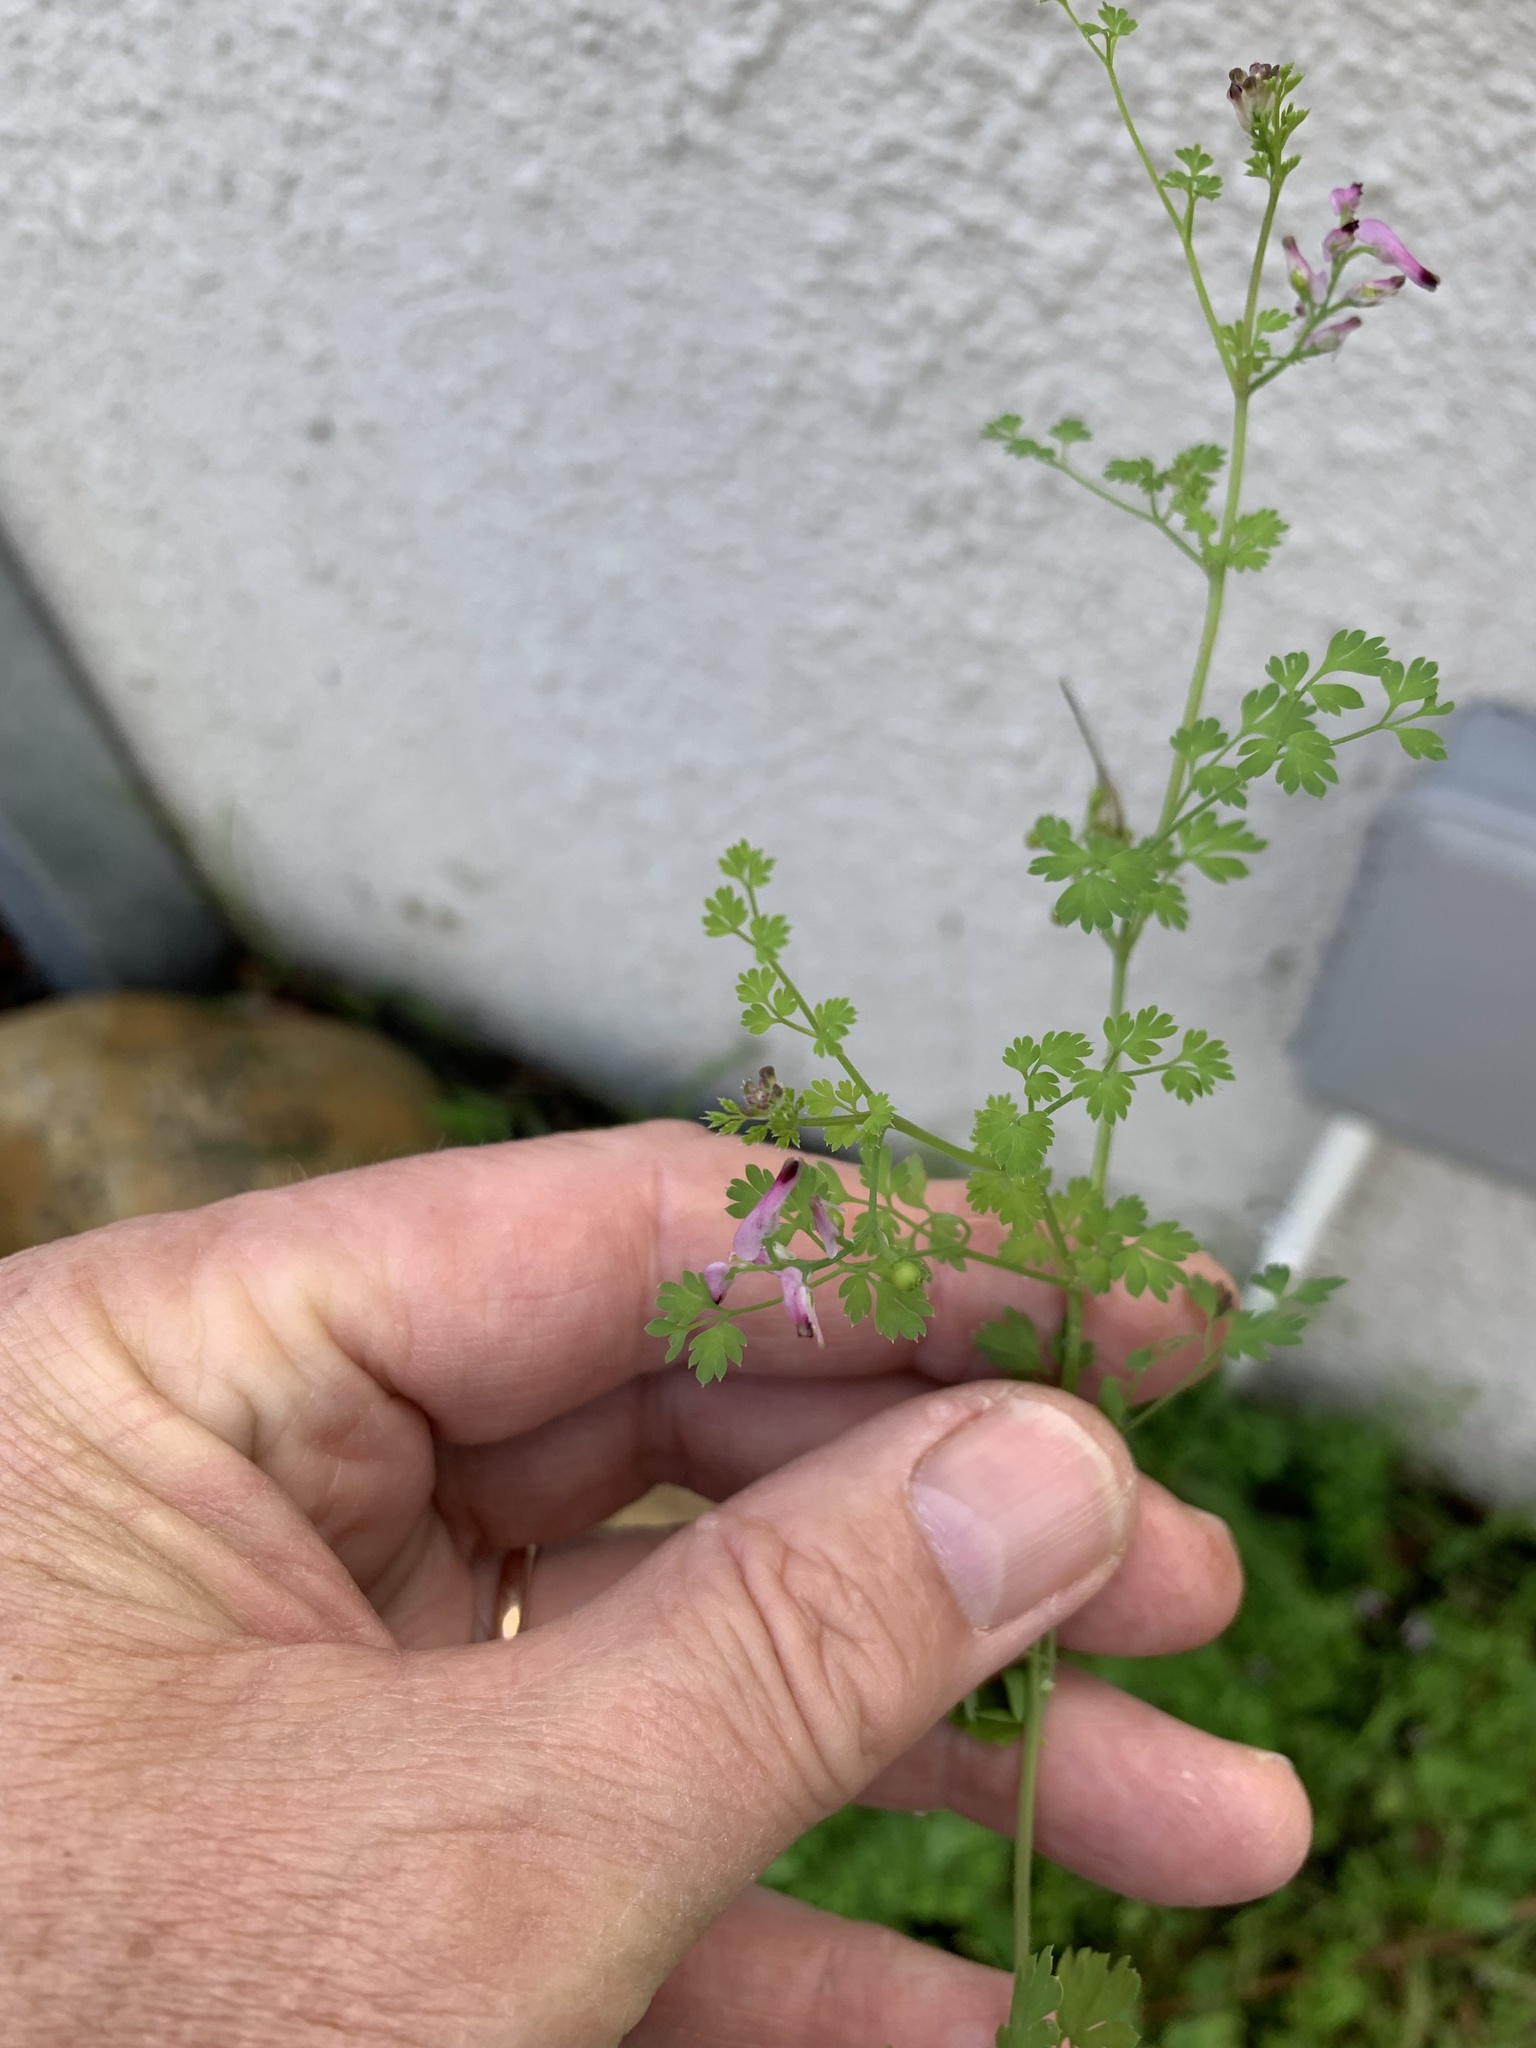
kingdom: Plantae
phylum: Tracheophyta
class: Magnoliopsida
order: Ranunculales
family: Papaveraceae
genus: Fumaria
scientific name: Fumaria muralis
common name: Common ramping-fumitory
